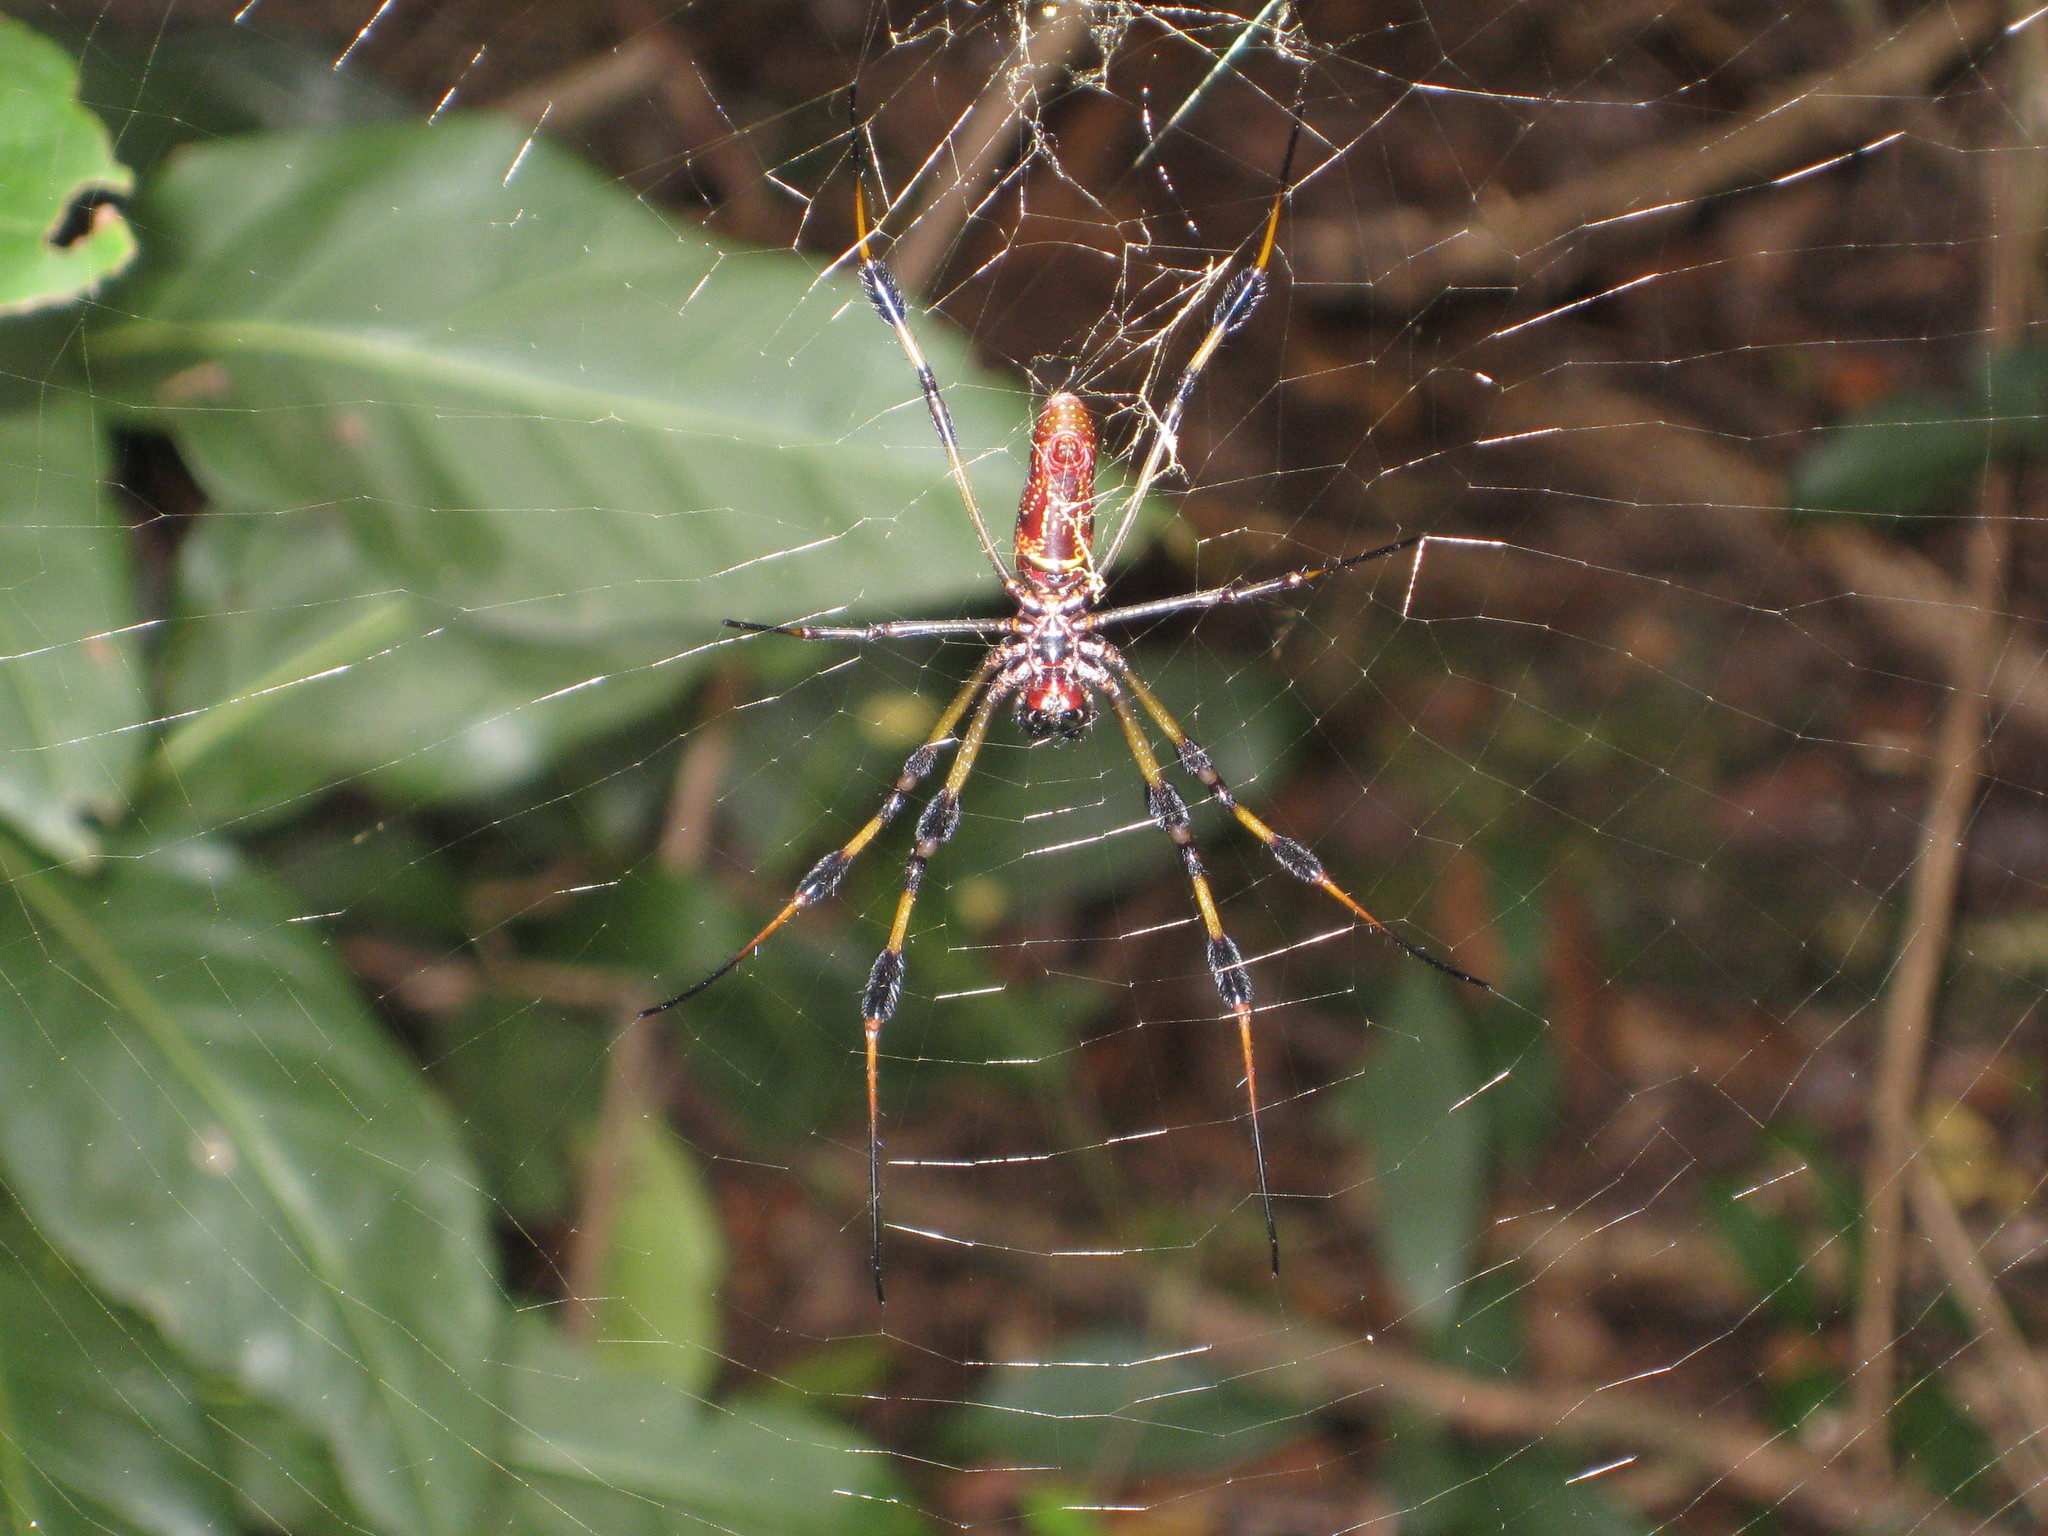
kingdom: Animalia
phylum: Arthropoda
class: Arachnida
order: Araneae
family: Araneidae
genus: Trichonephila
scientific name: Trichonephila clavipes
